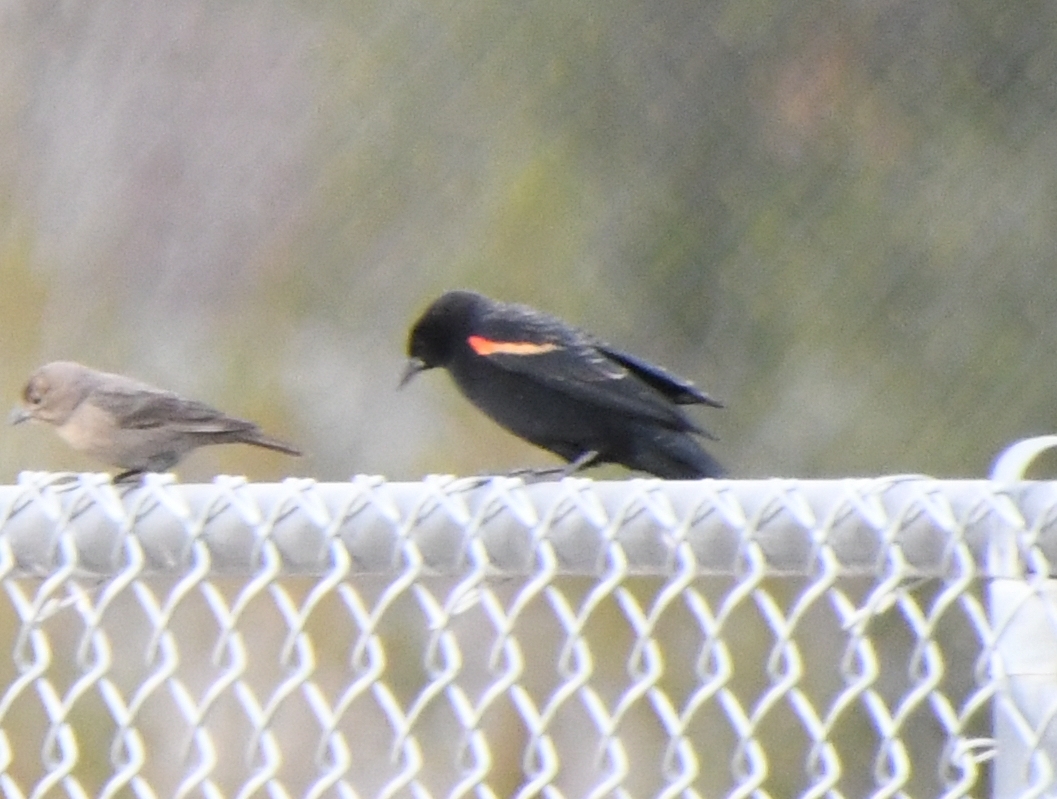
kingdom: Animalia
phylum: Chordata
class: Aves
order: Passeriformes
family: Icteridae
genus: Agelaius
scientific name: Agelaius phoeniceus
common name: Red-winged blackbird
